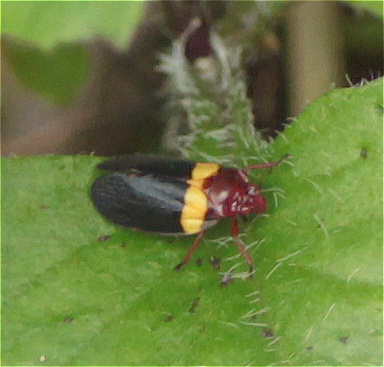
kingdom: Animalia
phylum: Arthropoda
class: Insecta
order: Hemiptera
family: Cercopidae
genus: Sphenorhina
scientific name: Sphenorhina obliterata
